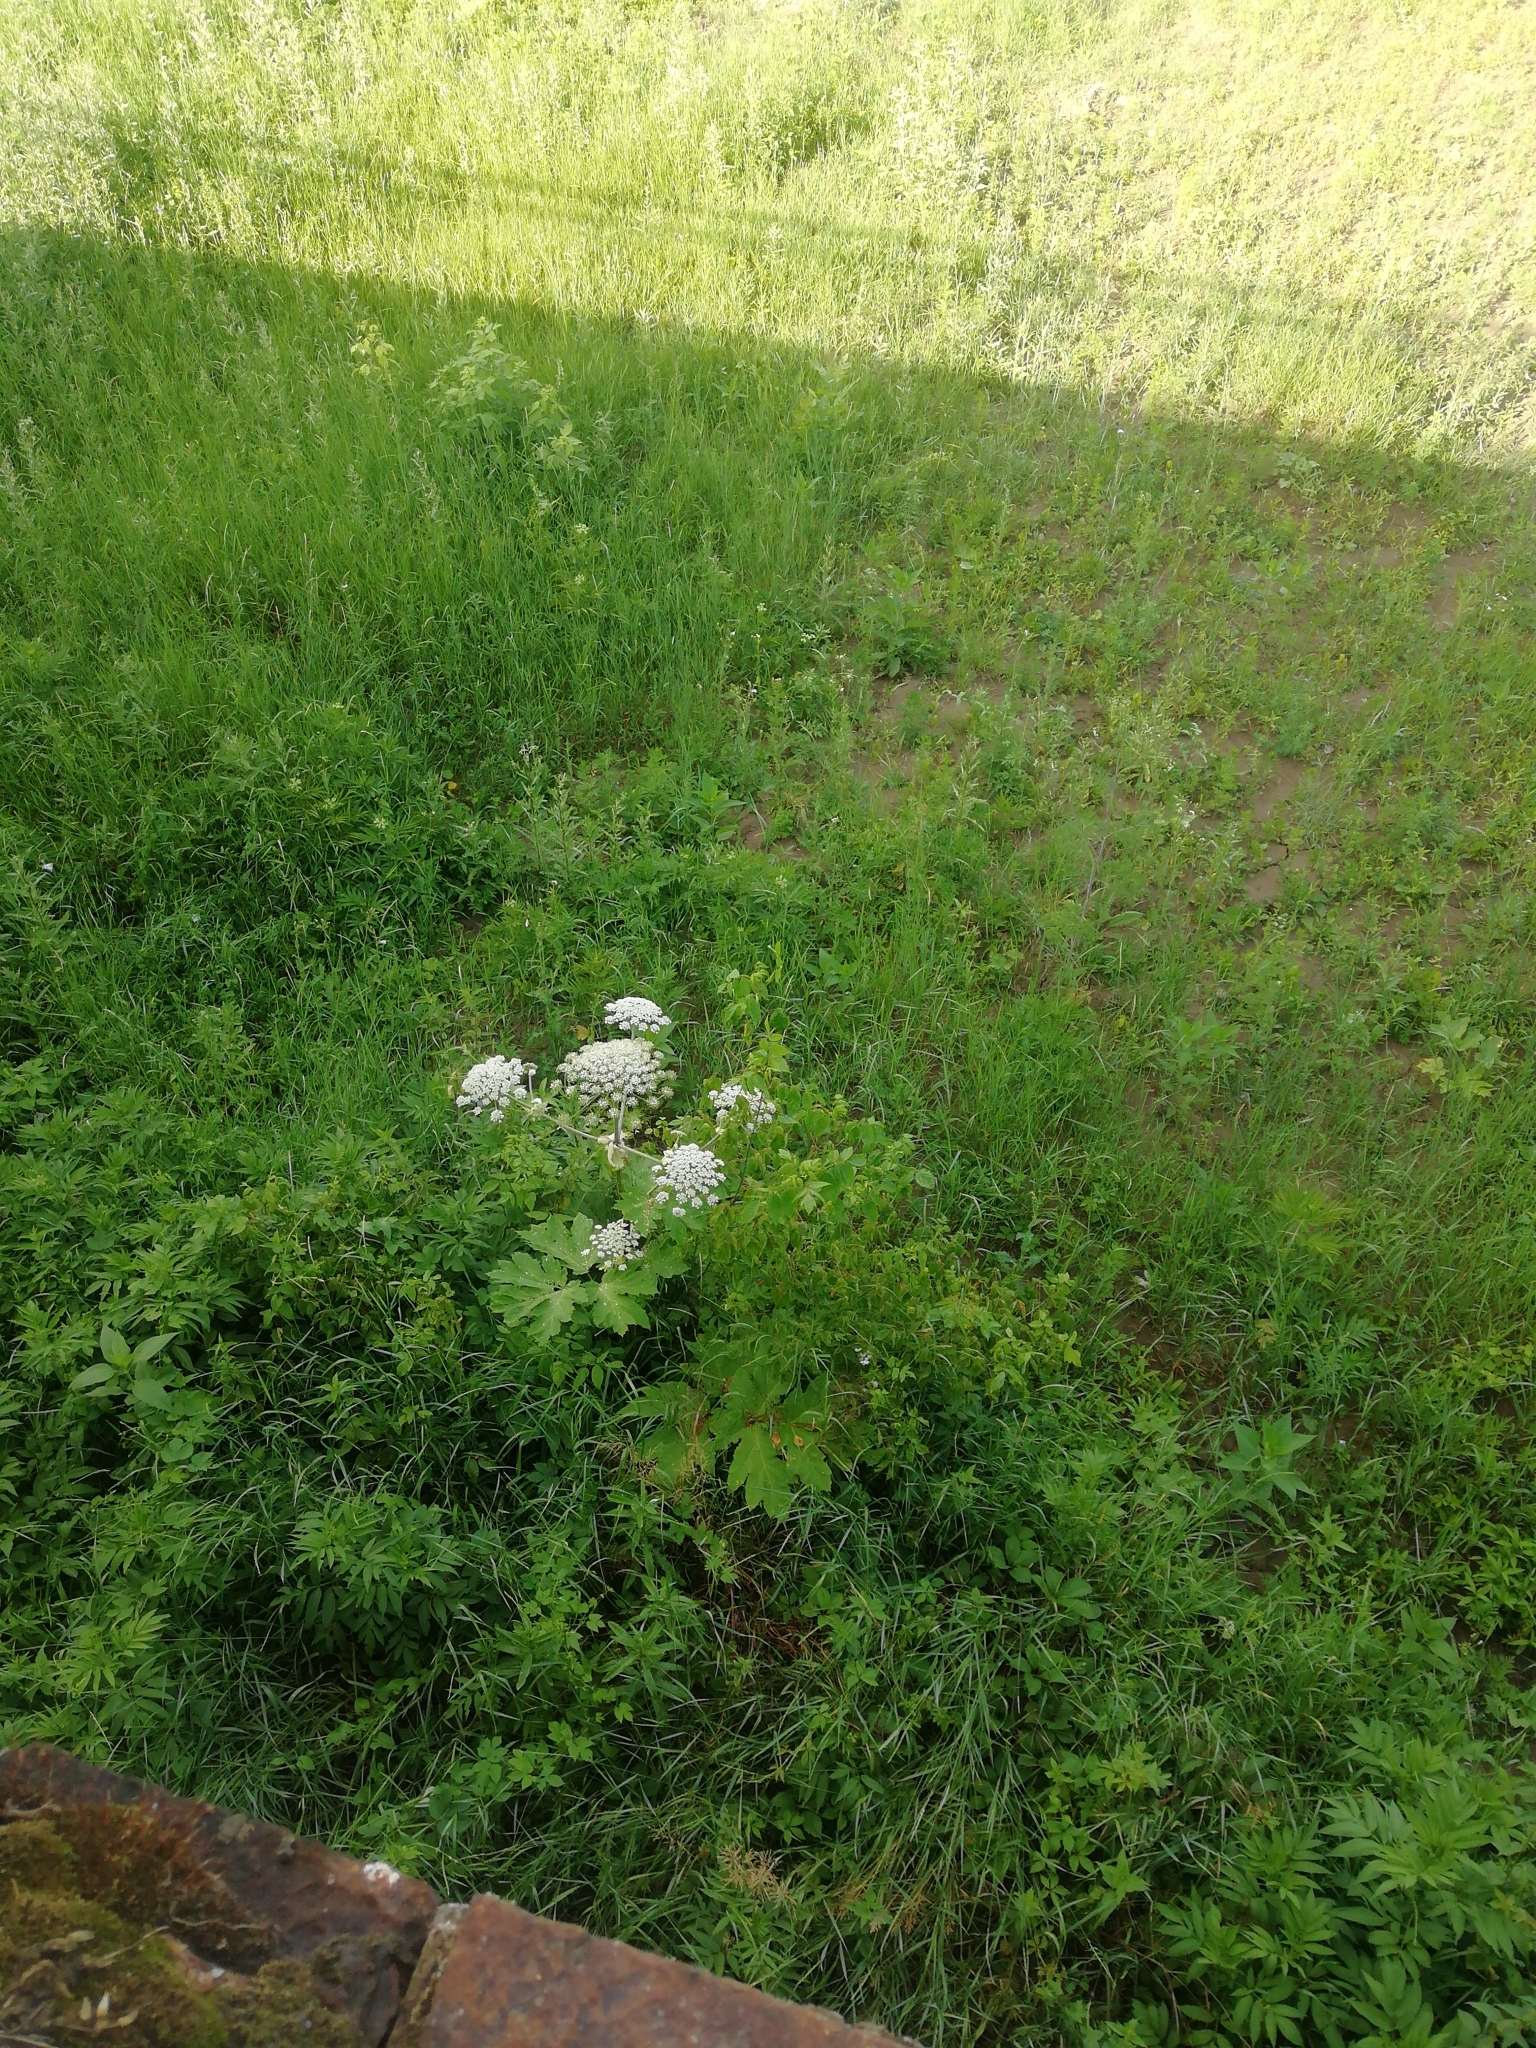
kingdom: Plantae
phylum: Tracheophyta
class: Magnoliopsida
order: Apiales
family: Apiaceae
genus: Heracleum
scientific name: Heracleum sosnowskyi
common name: Sosnowsky's hogweed
